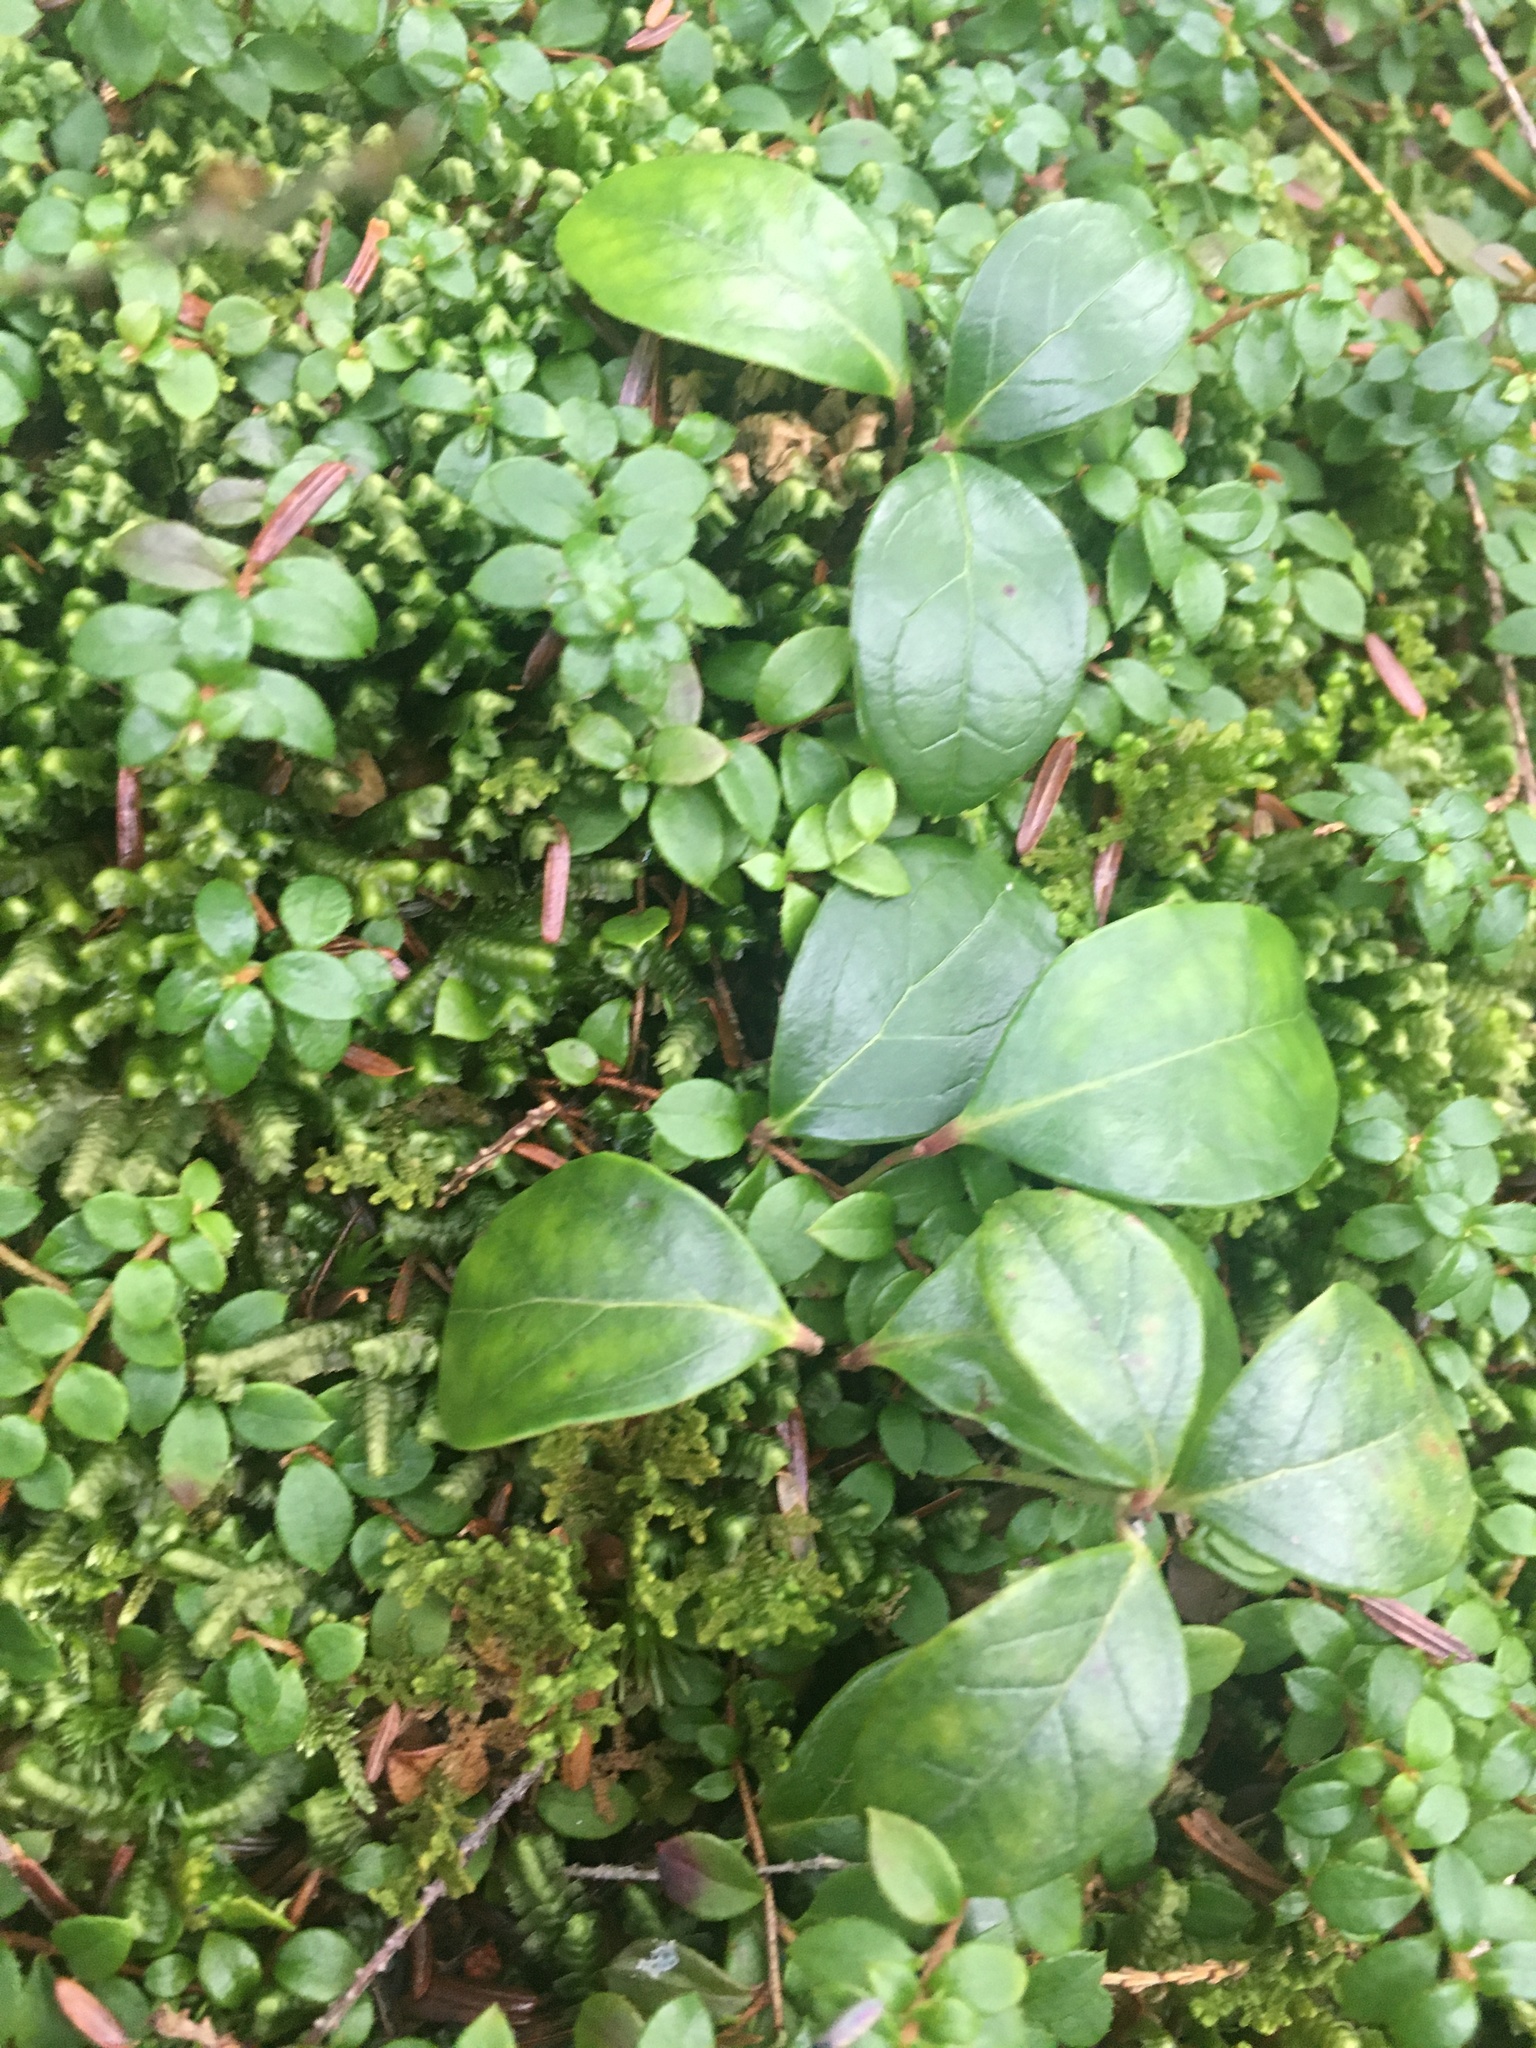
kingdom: Plantae
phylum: Tracheophyta
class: Magnoliopsida
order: Ericales
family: Ericaceae
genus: Gaultheria
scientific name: Gaultheria procumbens
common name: Checkerberry
